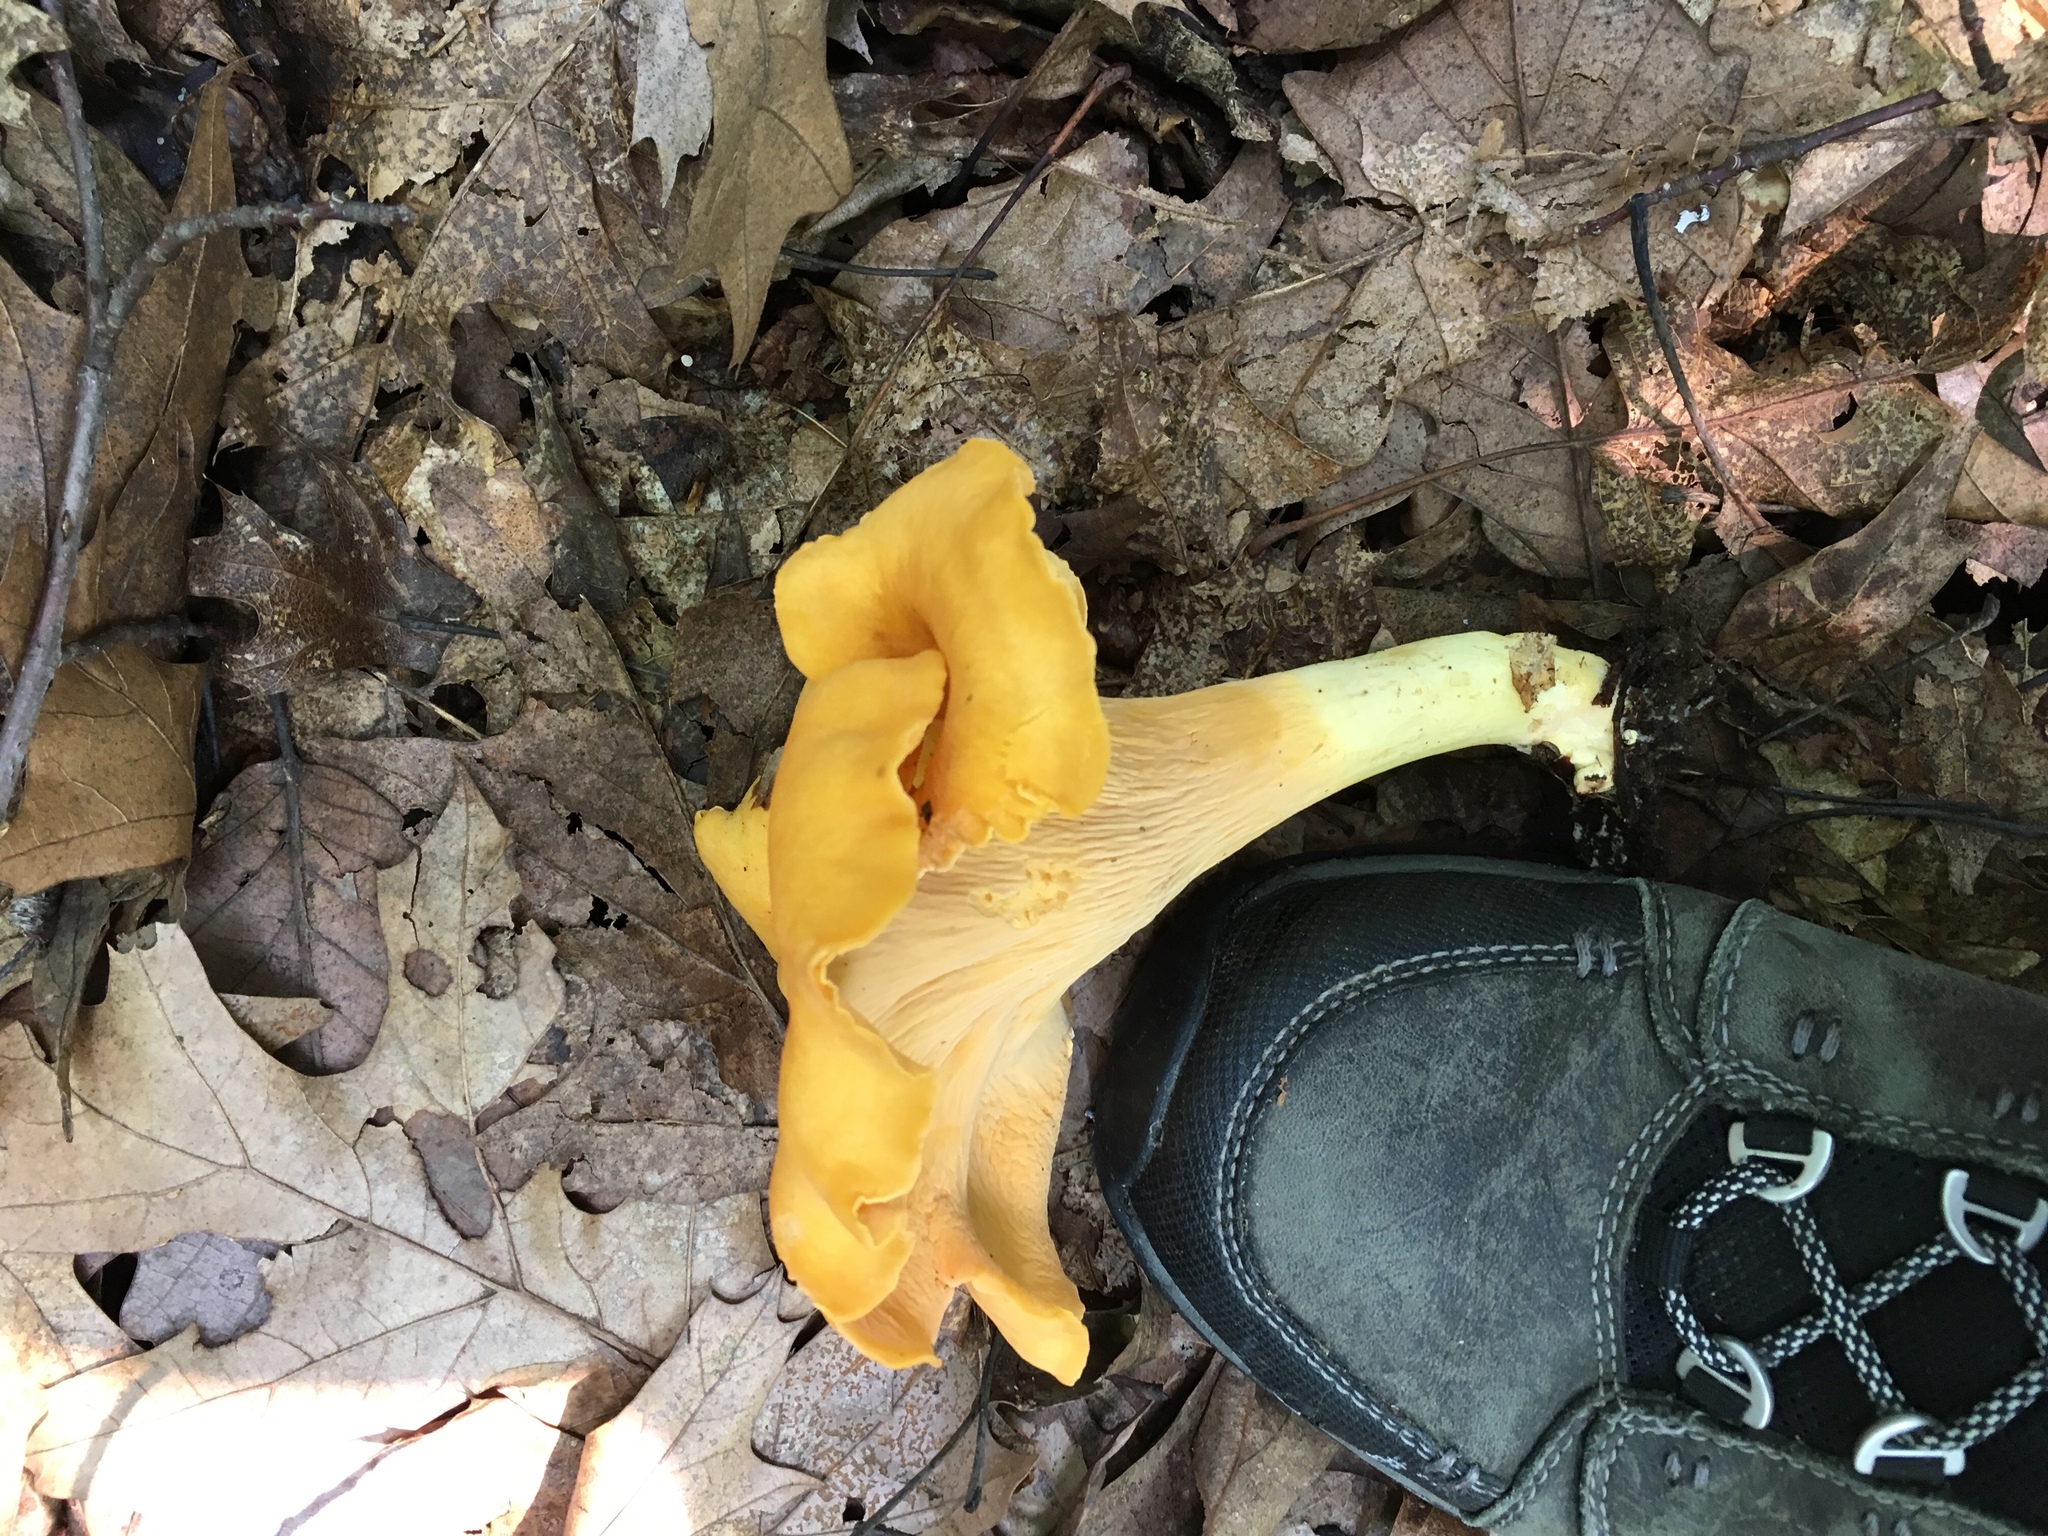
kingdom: Fungi
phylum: Basidiomycota
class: Agaricomycetes
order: Cantharellales
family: Hydnaceae
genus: Cantharellus
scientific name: Cantharellus lateritius
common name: Smooth chanterelle
